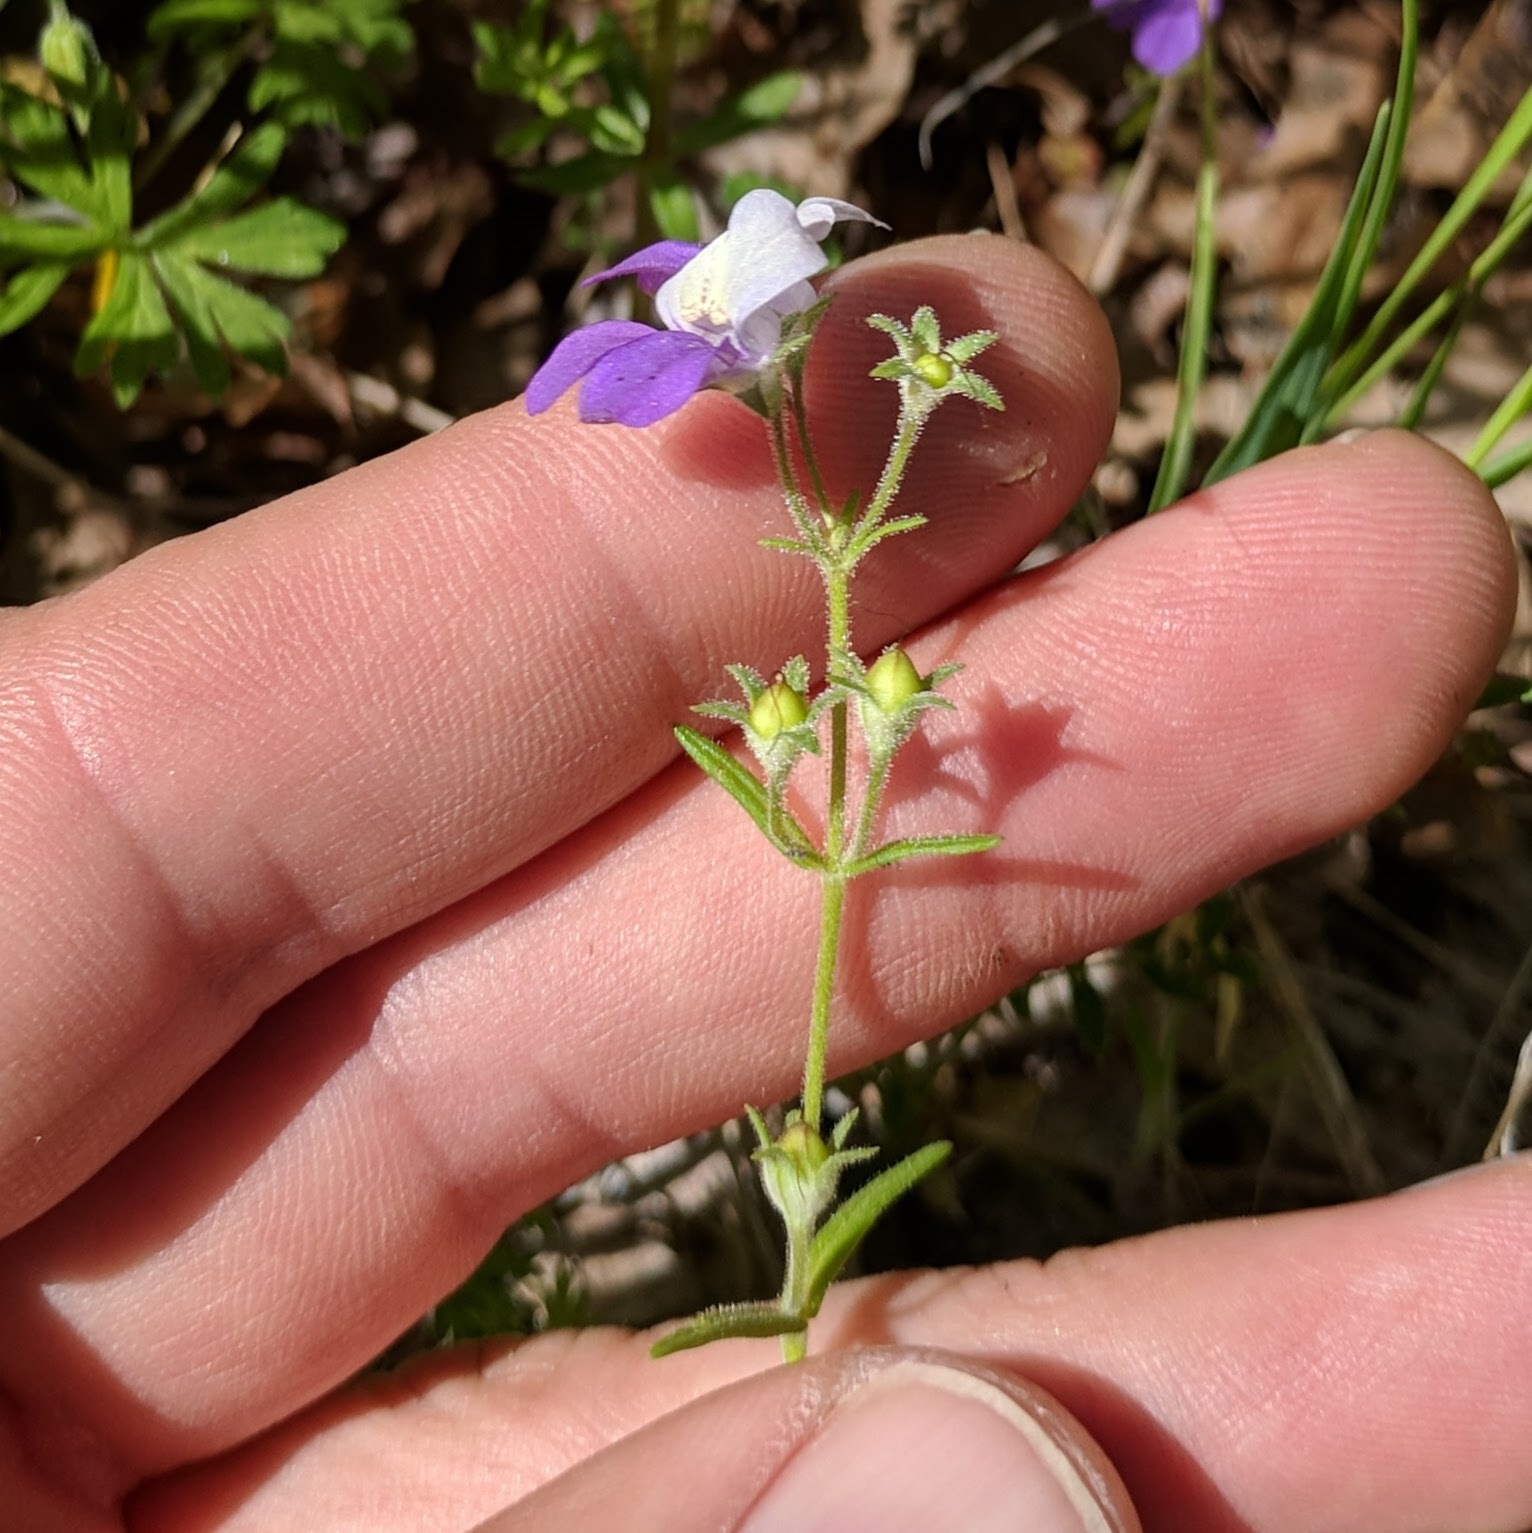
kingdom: Plantae
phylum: Tracheophyta
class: Magnoliopsida
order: Lamiales
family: Plantaginaceae
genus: Collinsia
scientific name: Collinsia linearis
